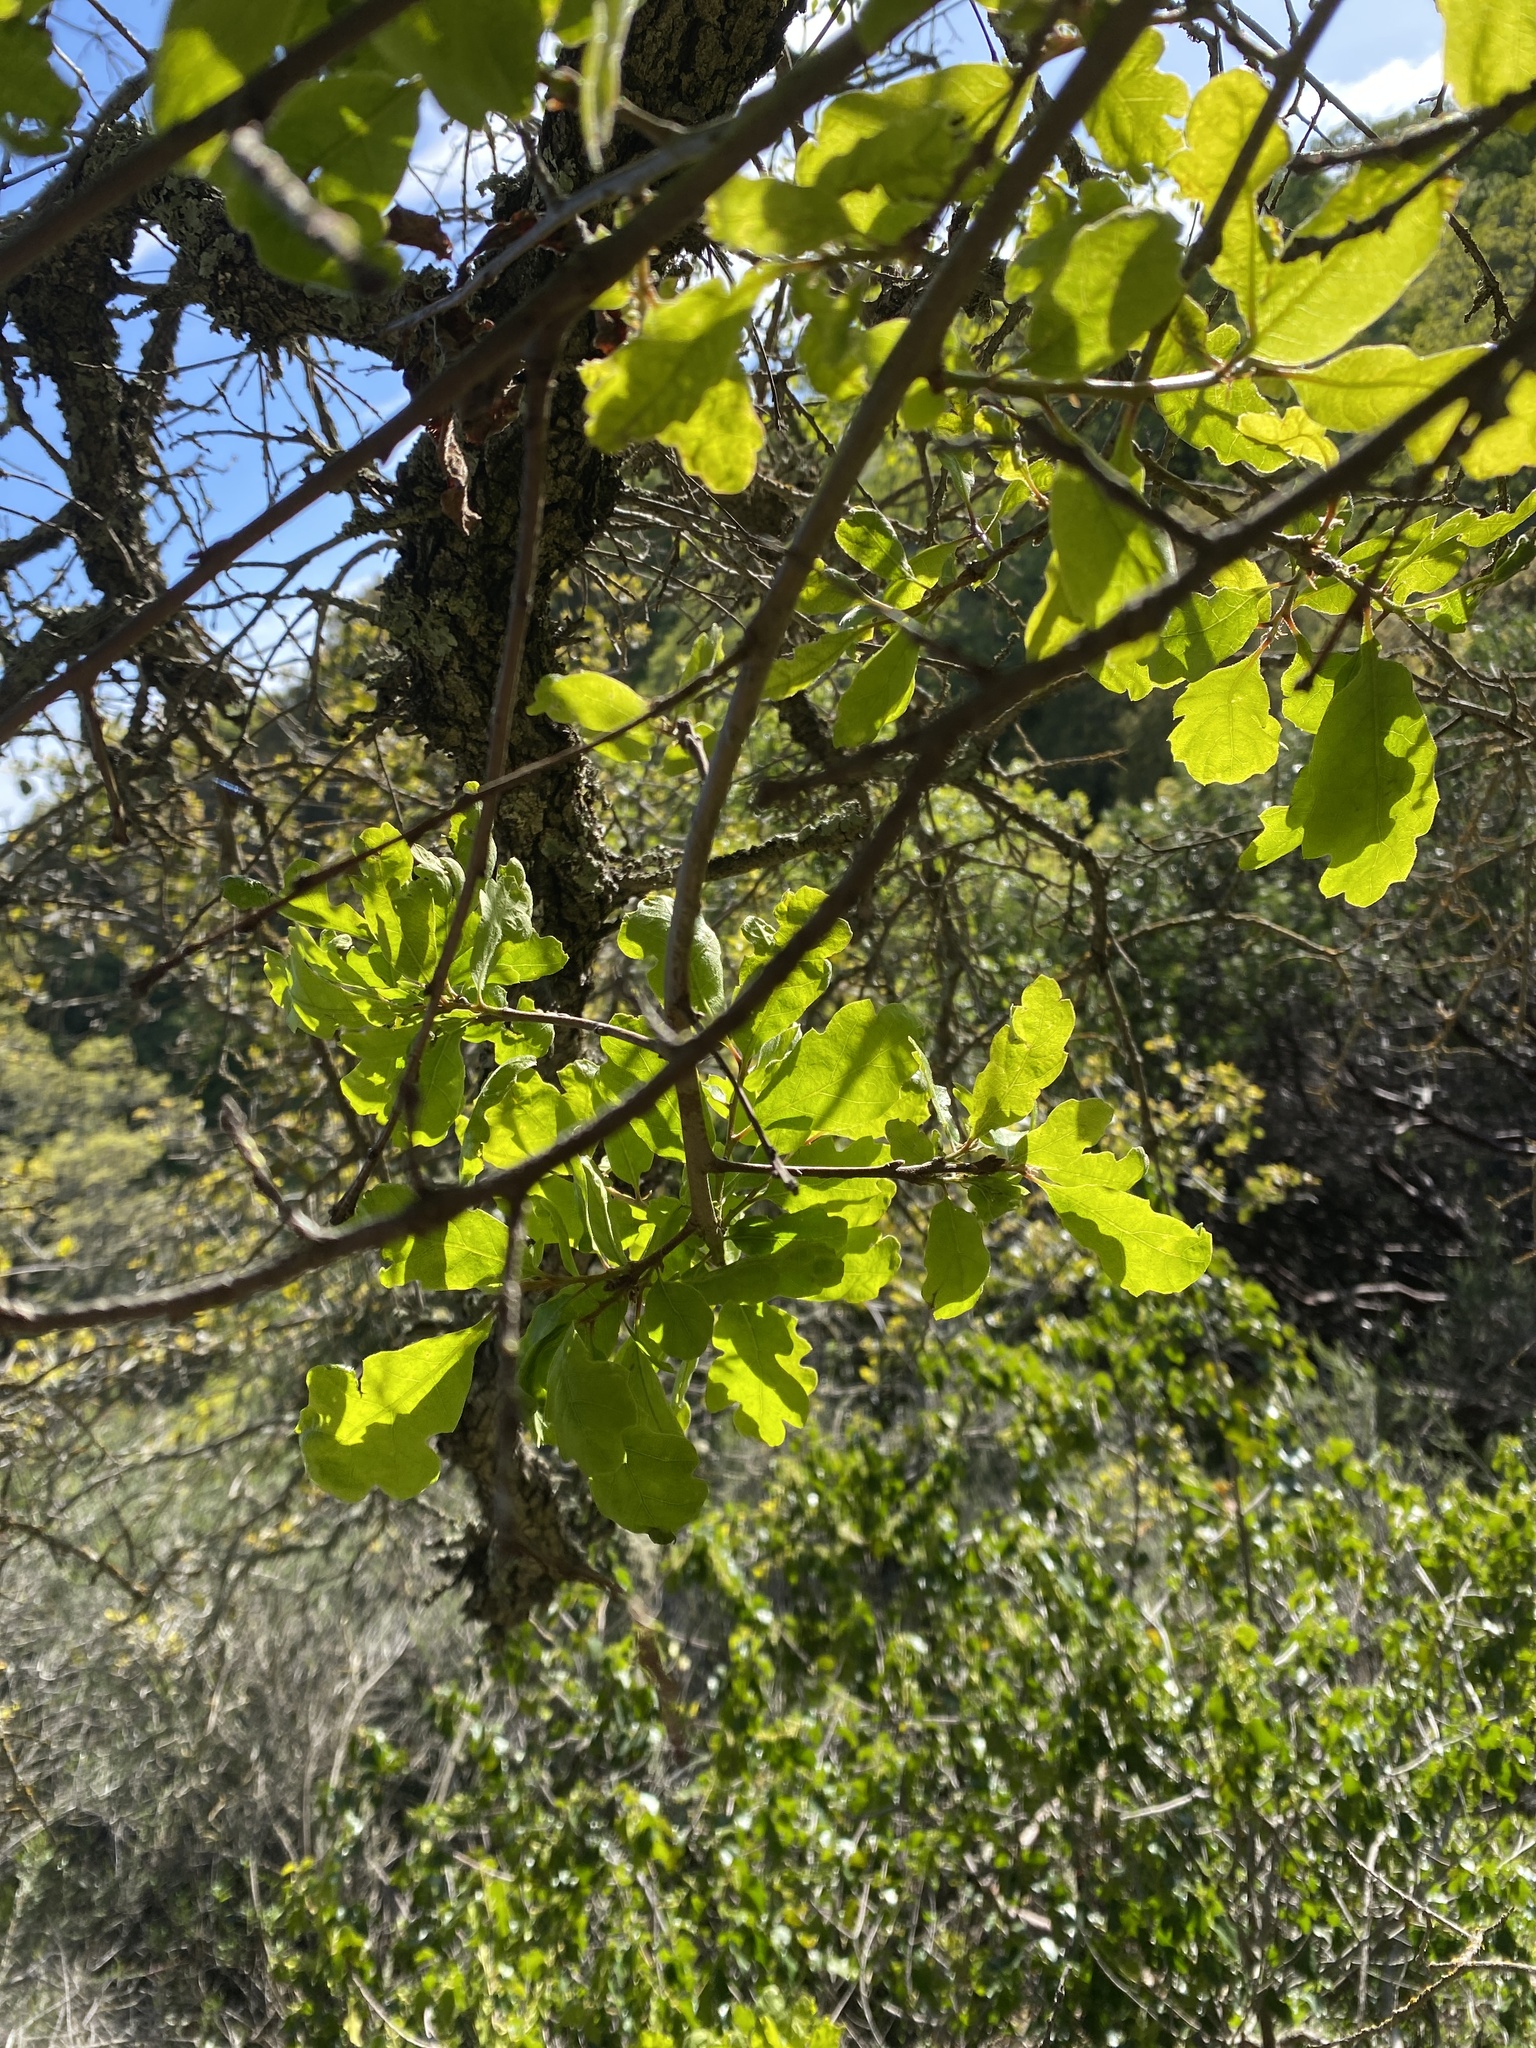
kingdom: Plantae
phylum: Tracheophyta
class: Magnoliopsida
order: Fagales
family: Fagaceae
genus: Quercus
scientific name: Quercus douglasii
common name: Blue oak
